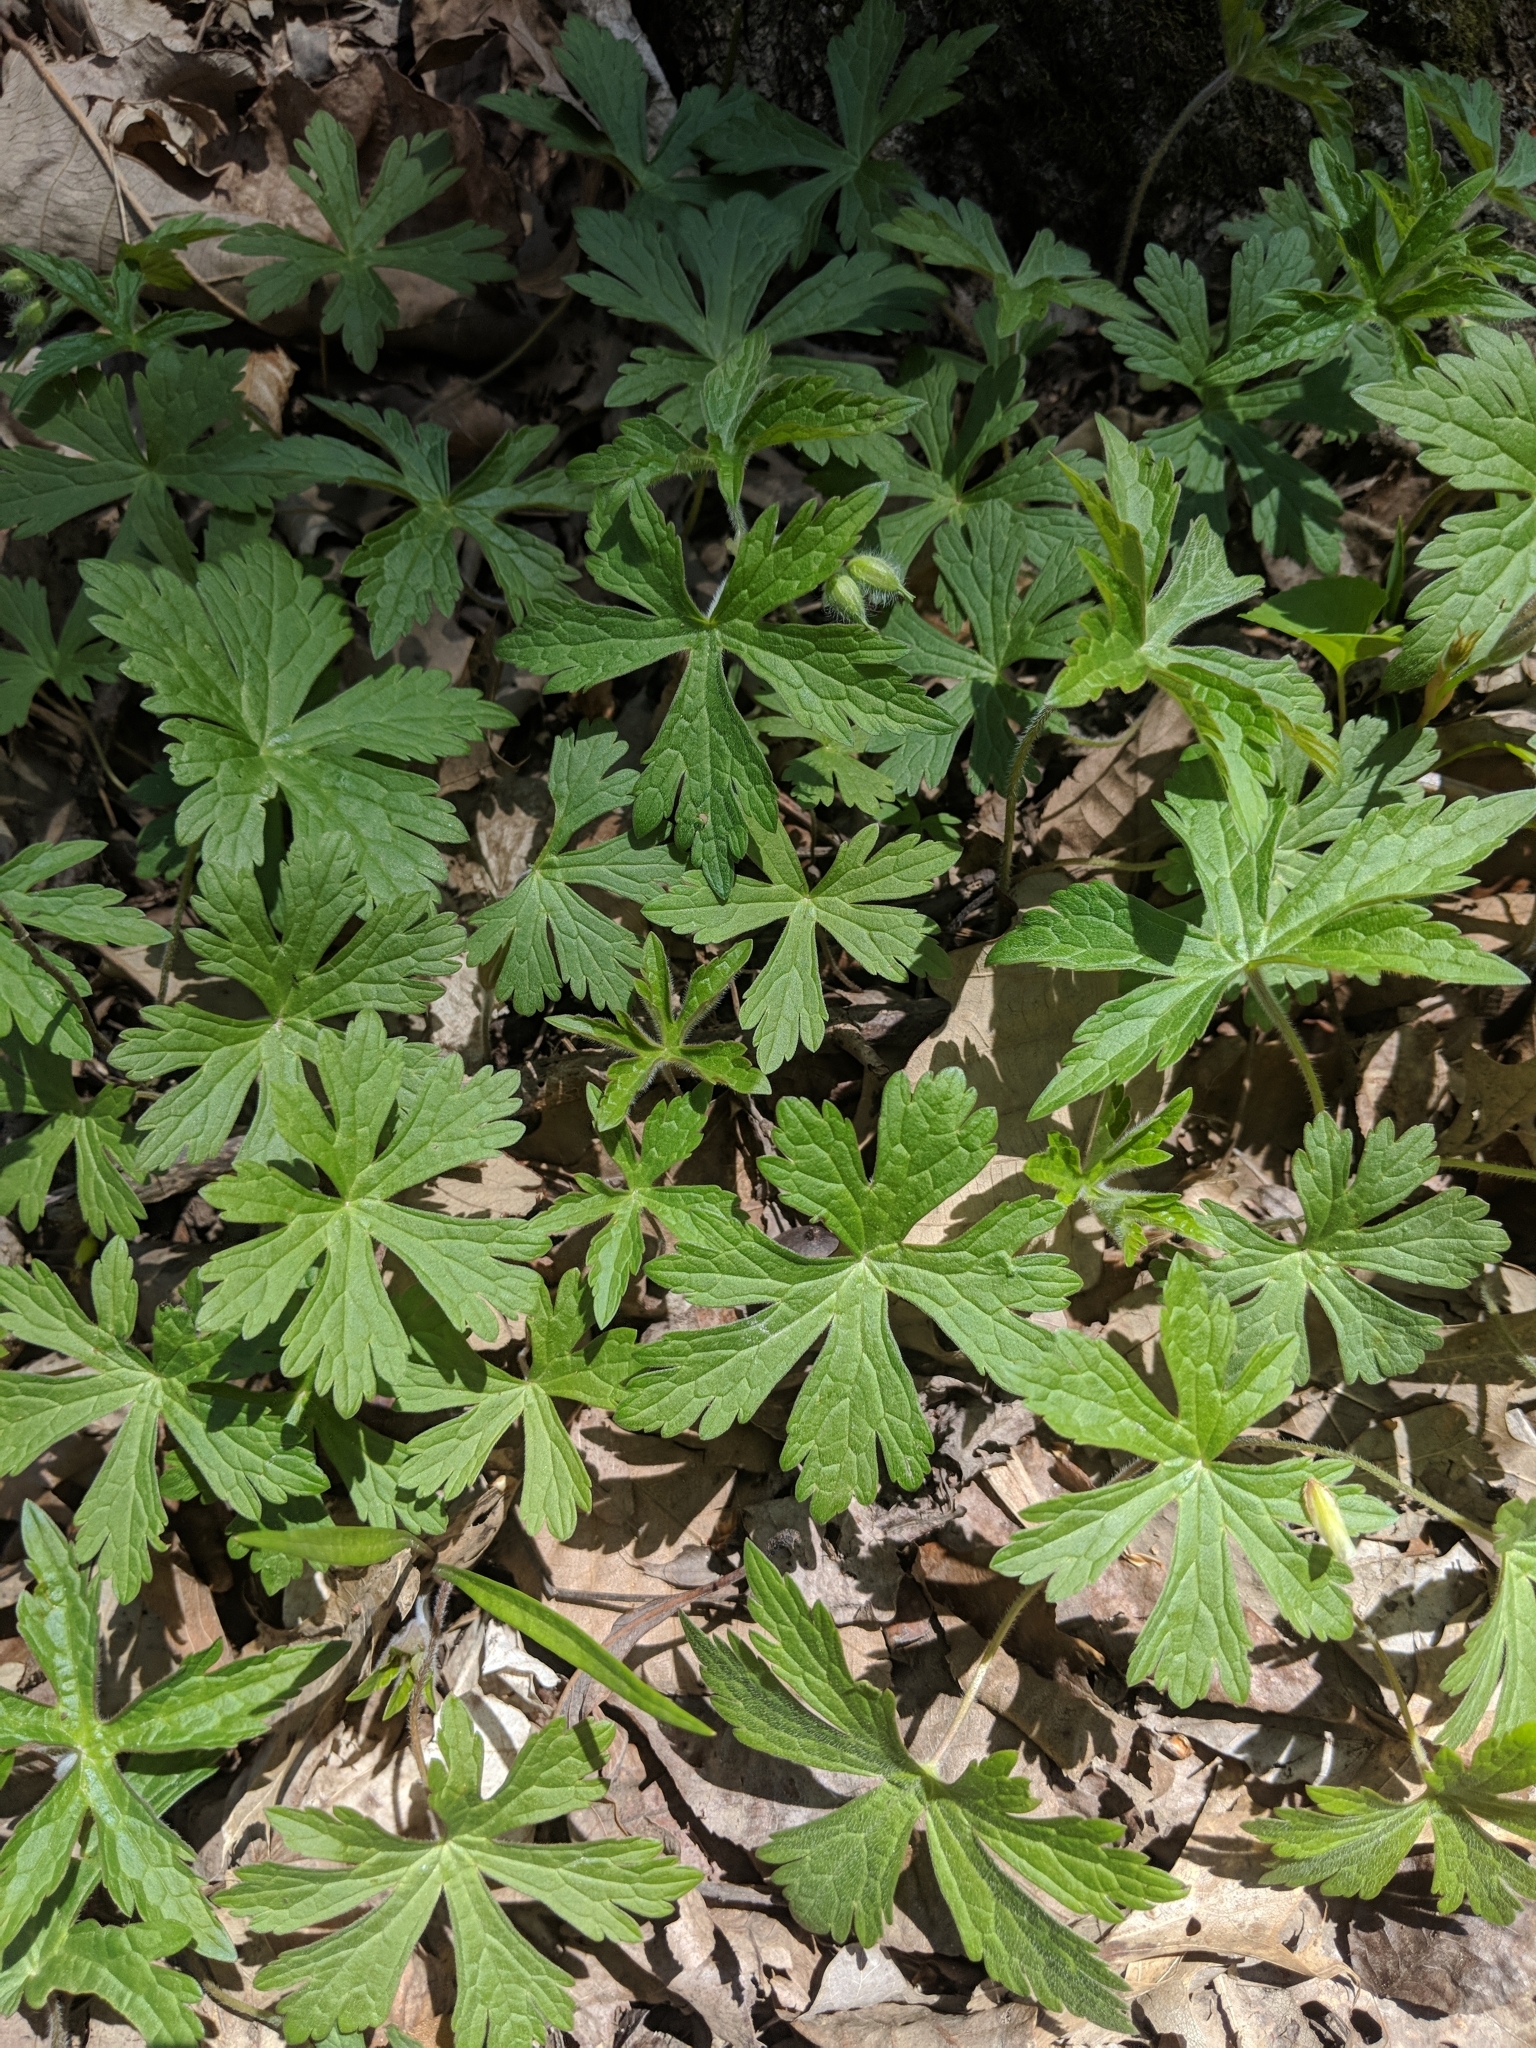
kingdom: Plantae
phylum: Tracheophyta
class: Magnoliopsida
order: Geraniales
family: Geraniaceae
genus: Geranium
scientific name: Geranium maculatum
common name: Spotted geranium
